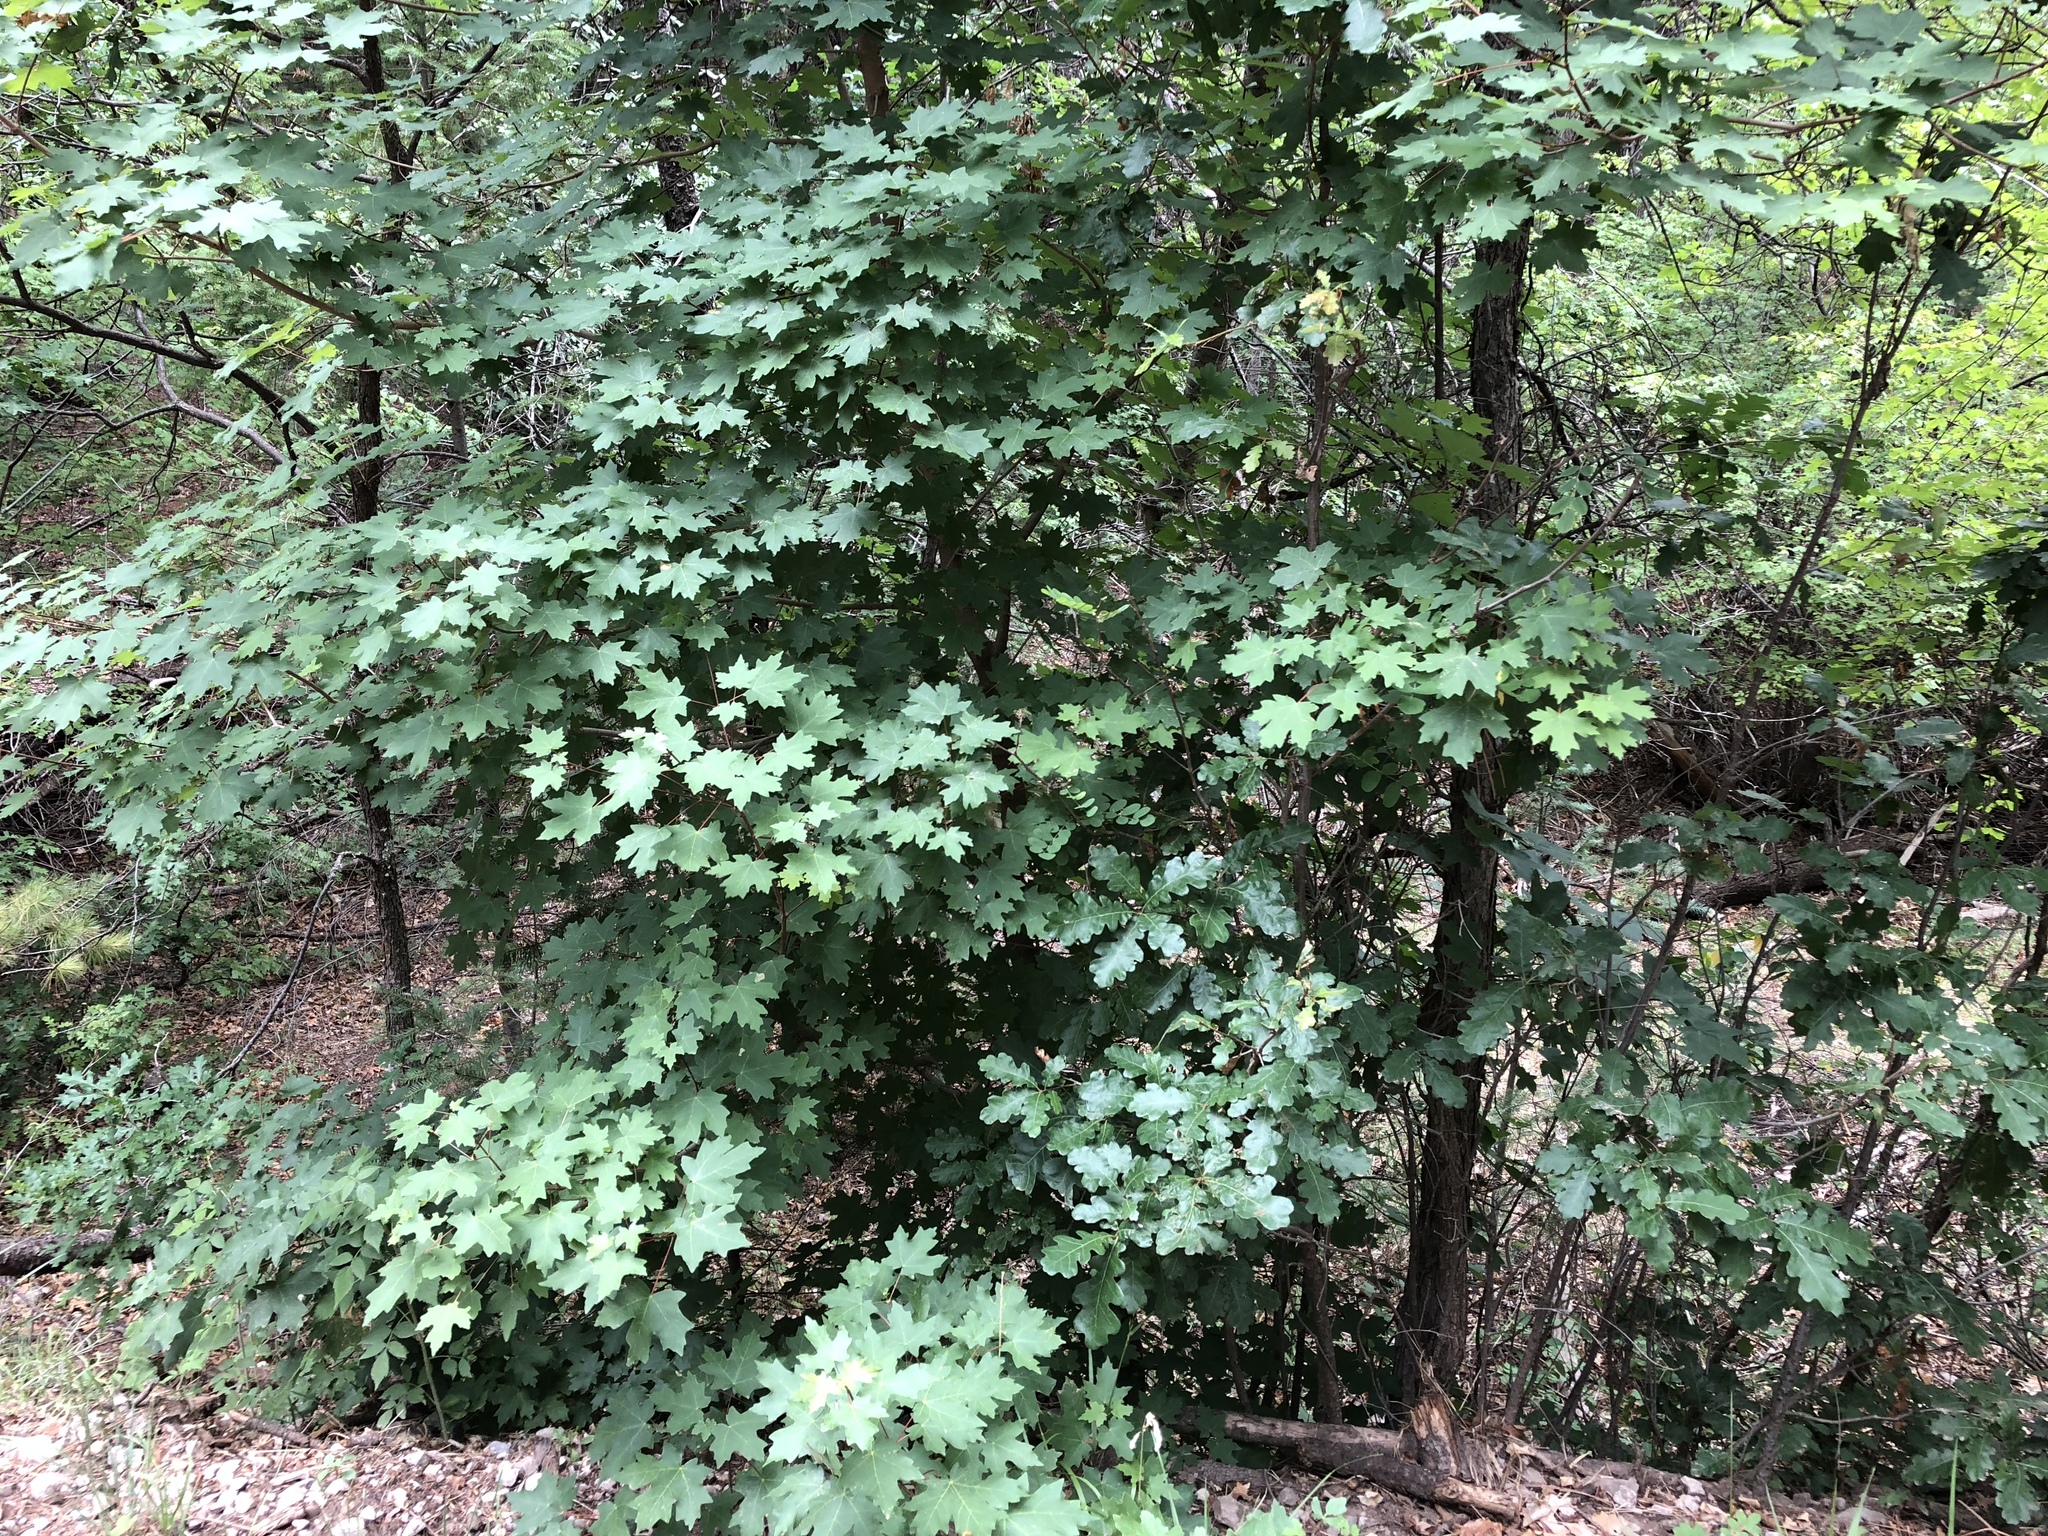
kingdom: Plantae
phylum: Tracheophyta
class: Magnoliopsida
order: Sapindales
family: Sapindaceae
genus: Acer
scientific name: Acer grandidentatum
